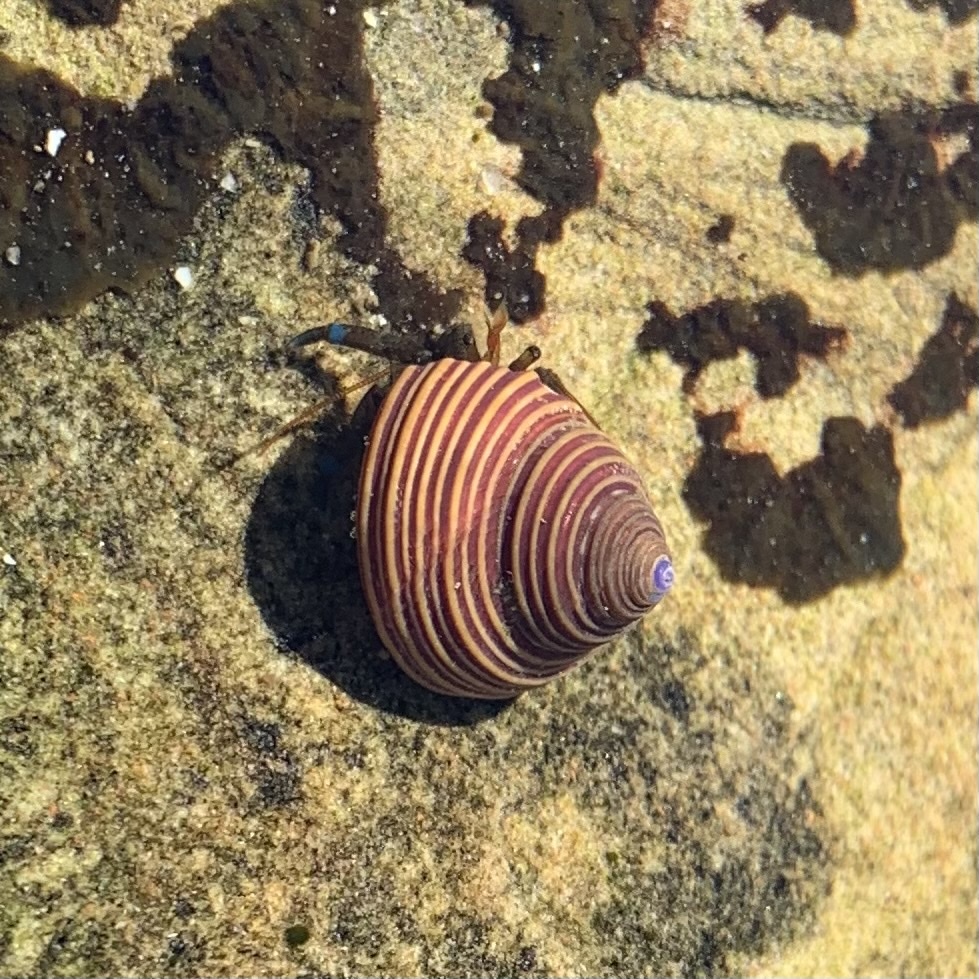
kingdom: Animalia
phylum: Mollusca
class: Gastropoda
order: Trochida
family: Calliostomatidae
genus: Calliostoma
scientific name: Calliostoma ligatum
